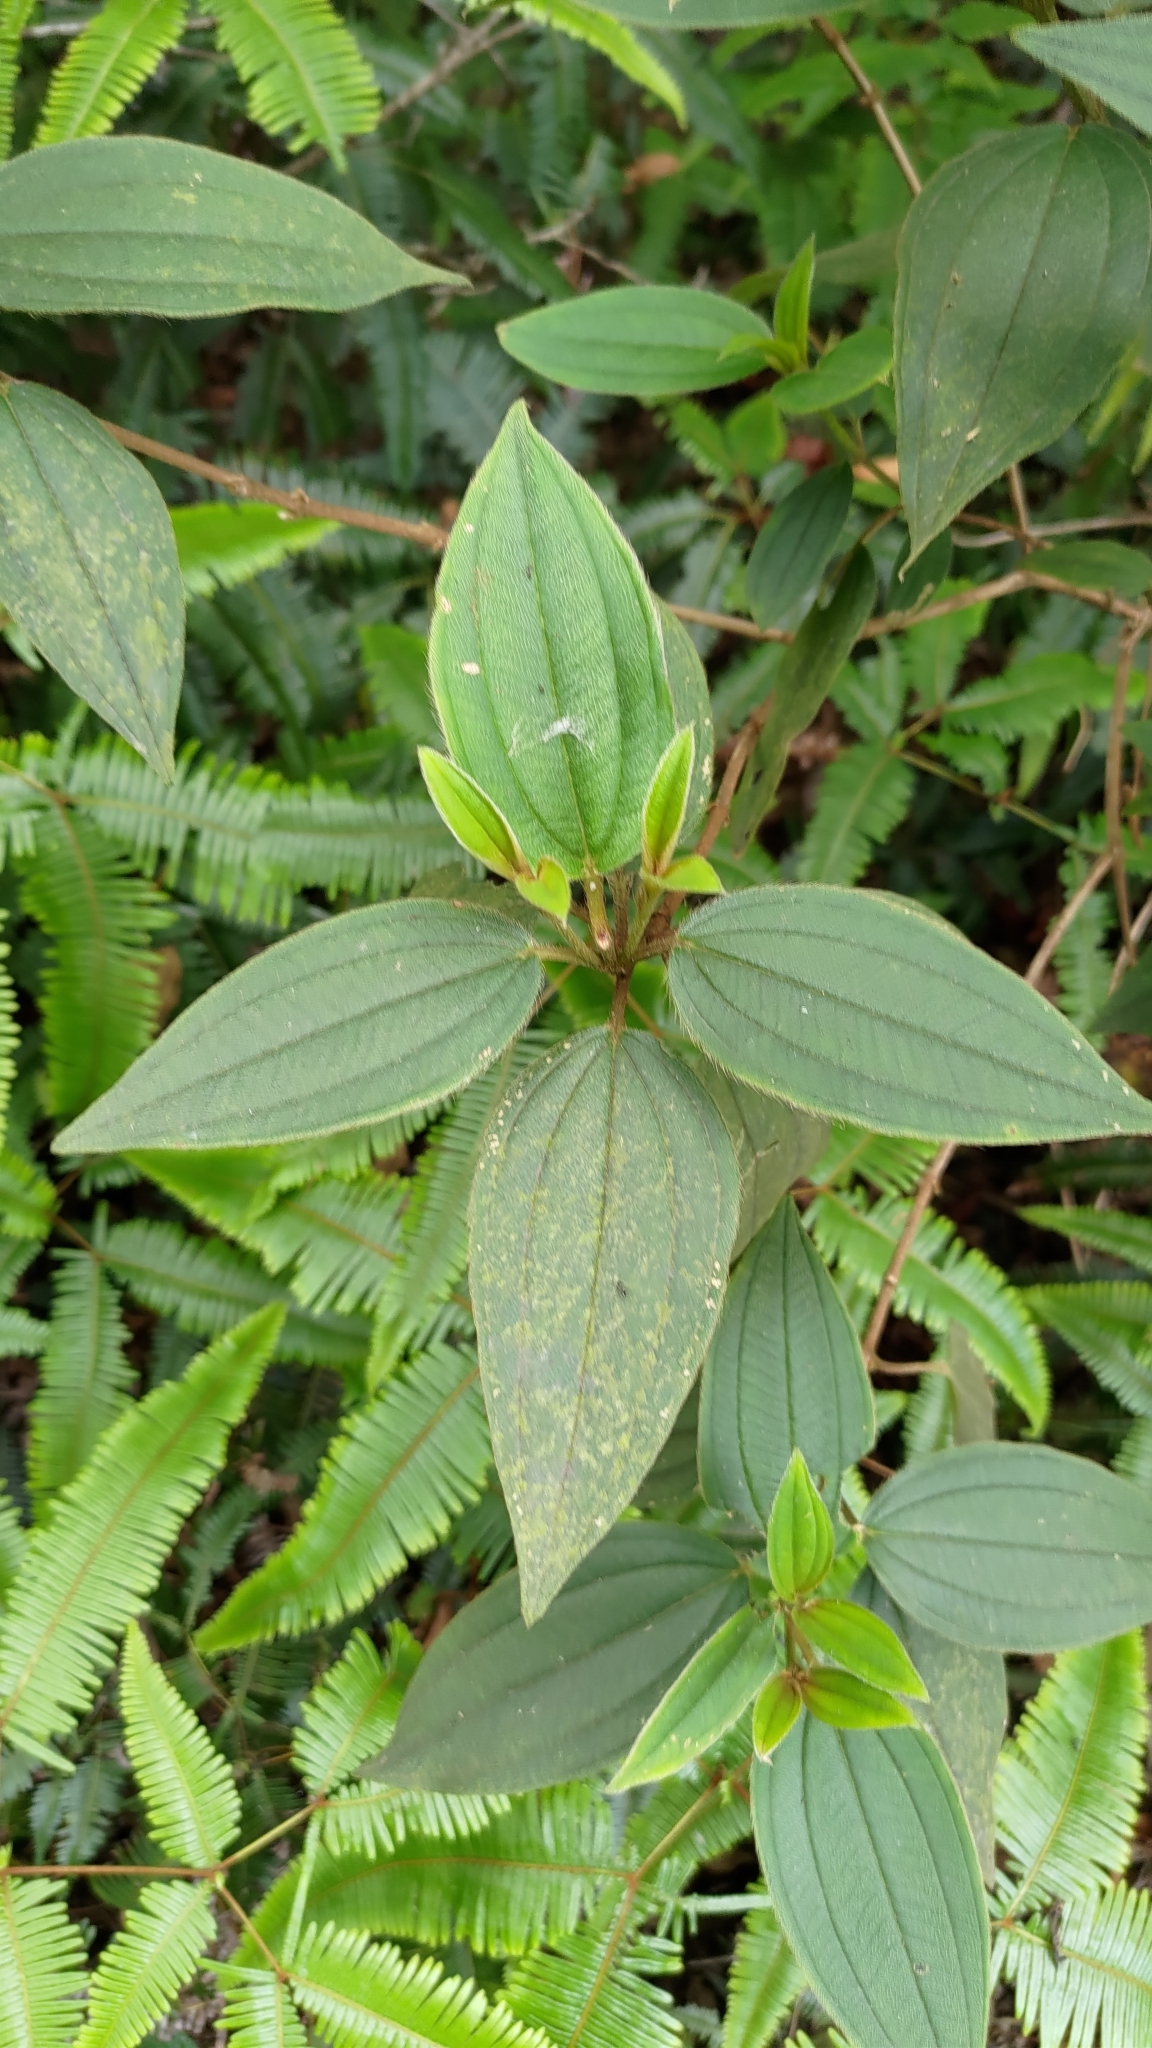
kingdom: Plantae
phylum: Tracheophyta
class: Magnoliopsida
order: Myrtales
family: Melastomataceae
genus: Melastoma
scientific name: Melastoma malabathricum
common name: Indian-rhododendron
